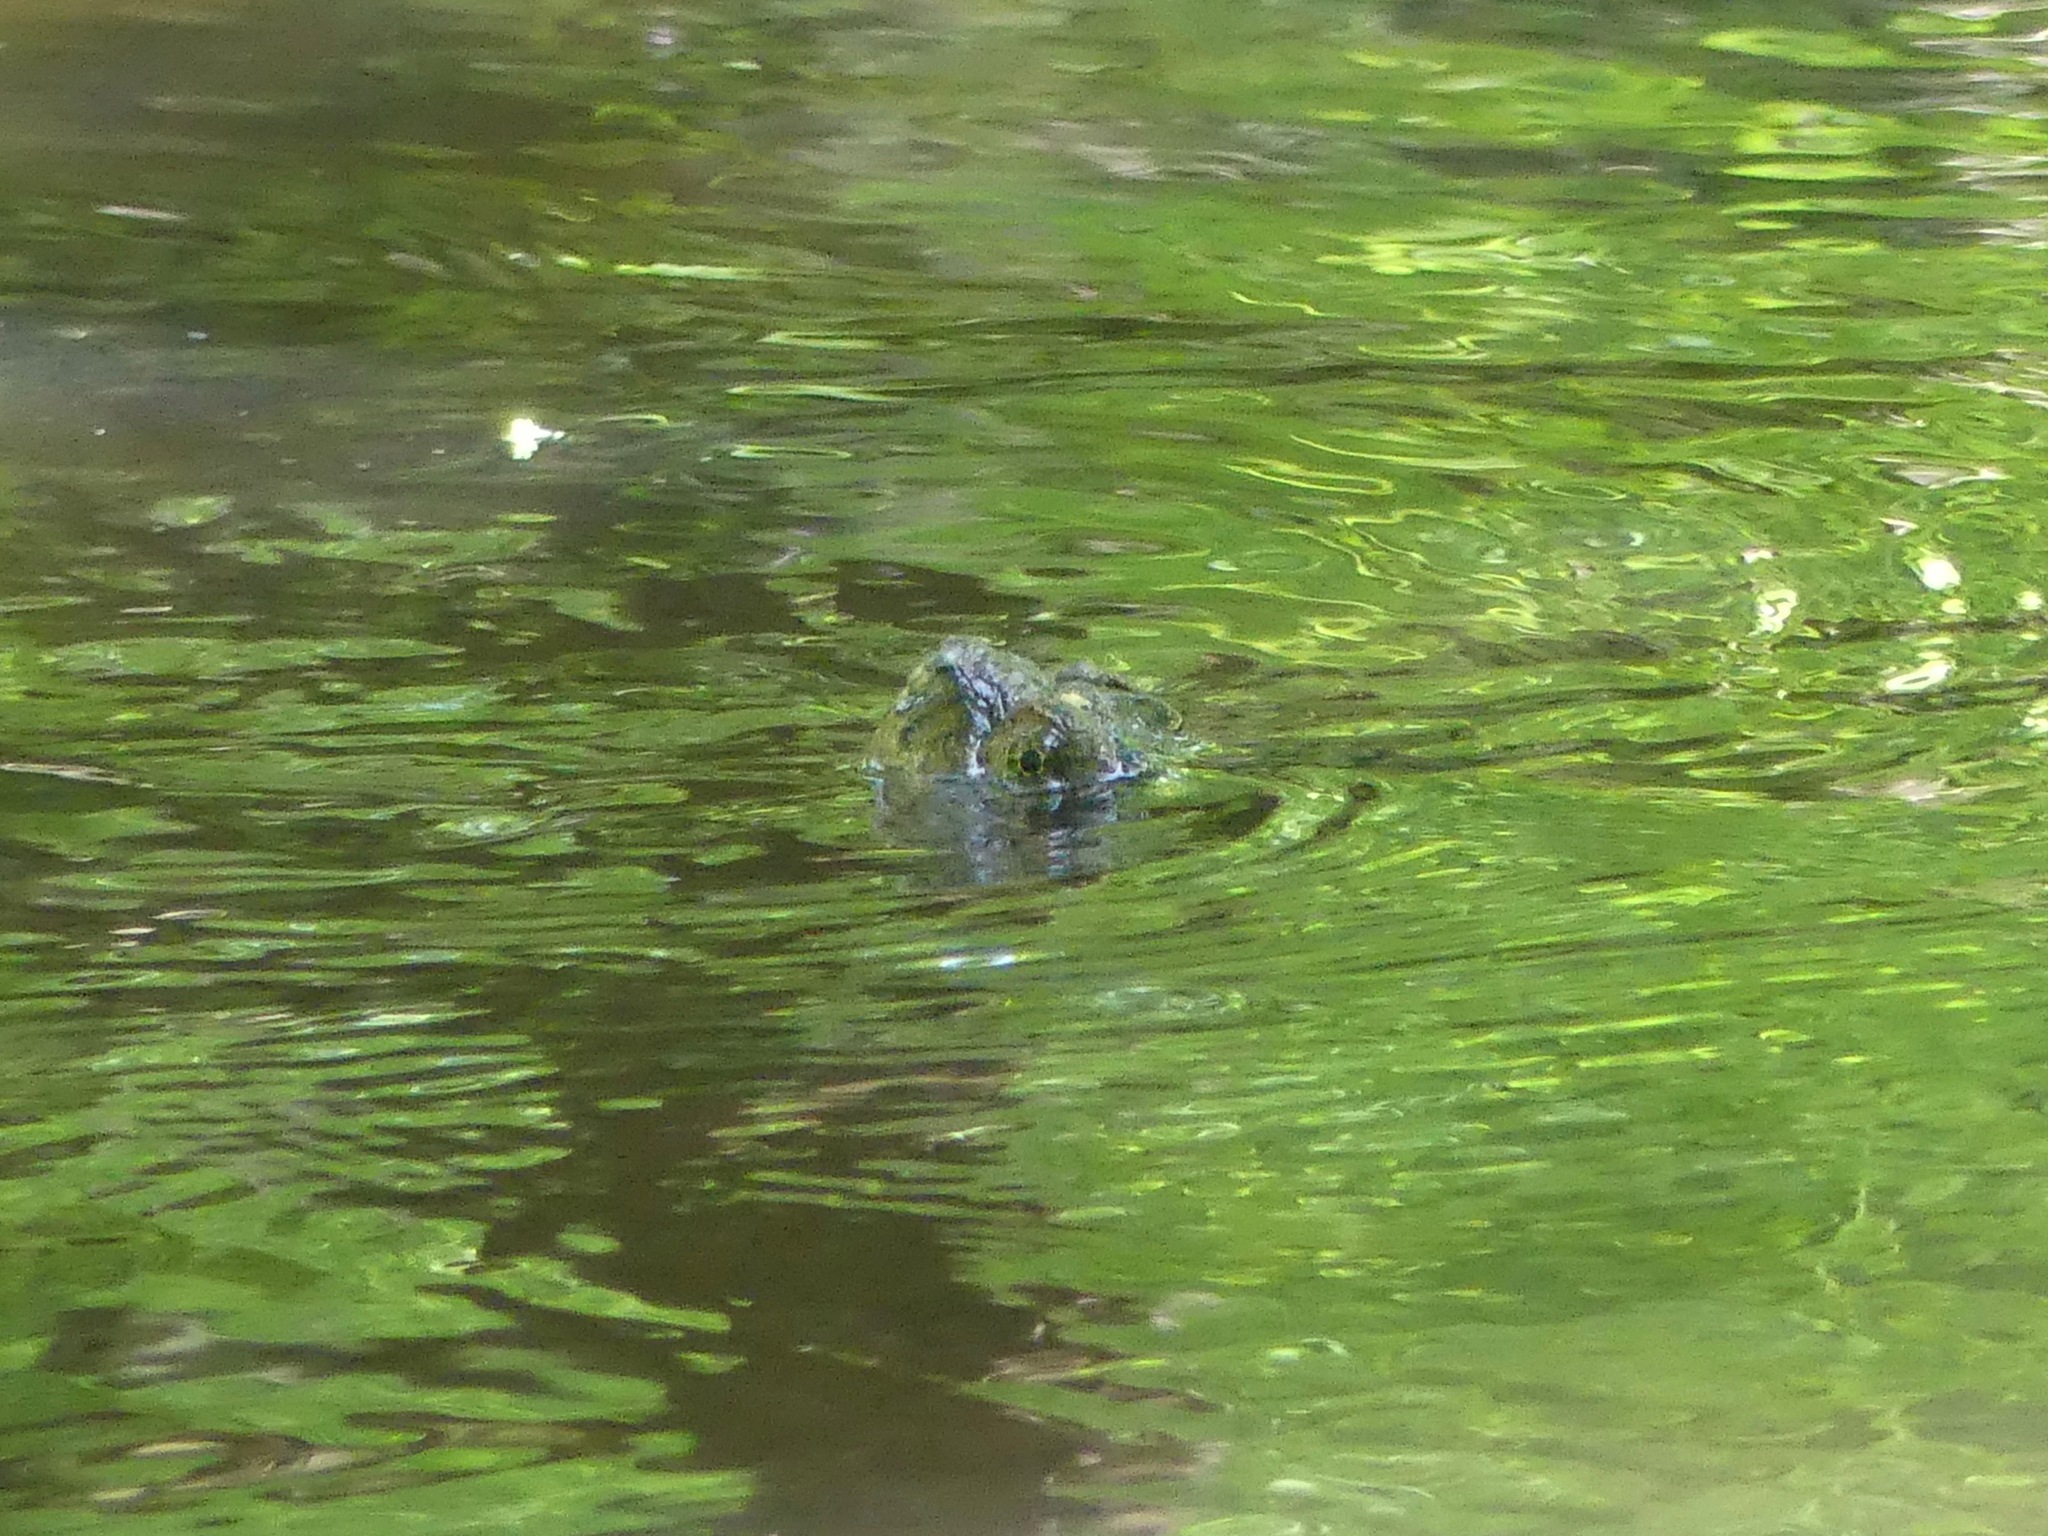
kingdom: Animalia
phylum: Chordata
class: Testudines
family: Chelydridae
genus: Chelydra
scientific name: Chelydra serpentina
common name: Common snapping turtle
